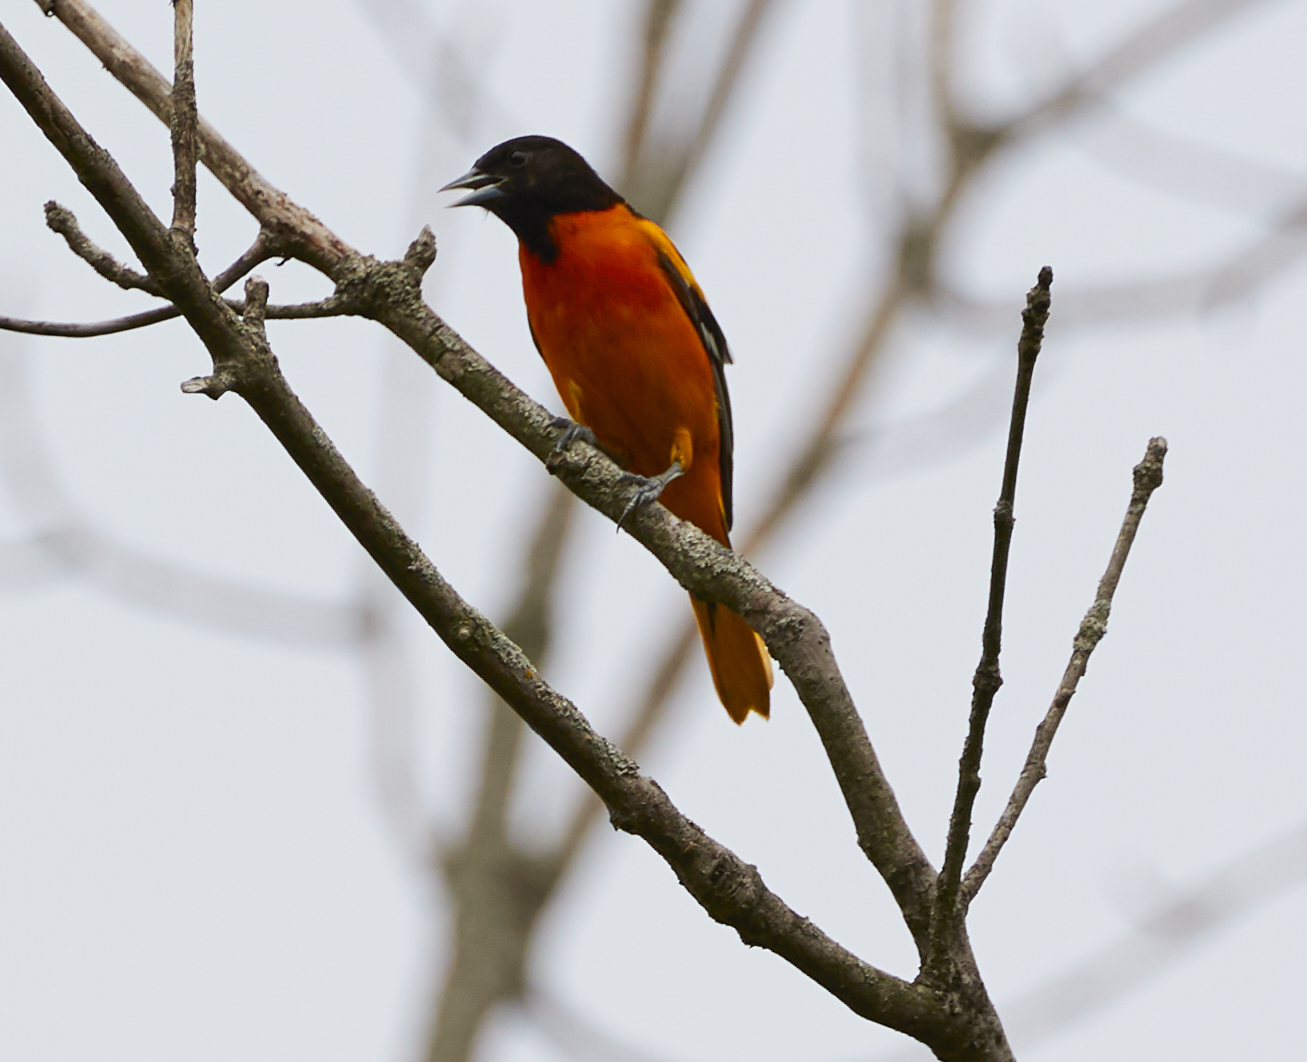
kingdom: Animalia
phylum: Chordata
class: Aves
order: Passeriformes
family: Icteridae
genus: Icterus
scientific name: Icterus galbula
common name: Baltimore oriole
